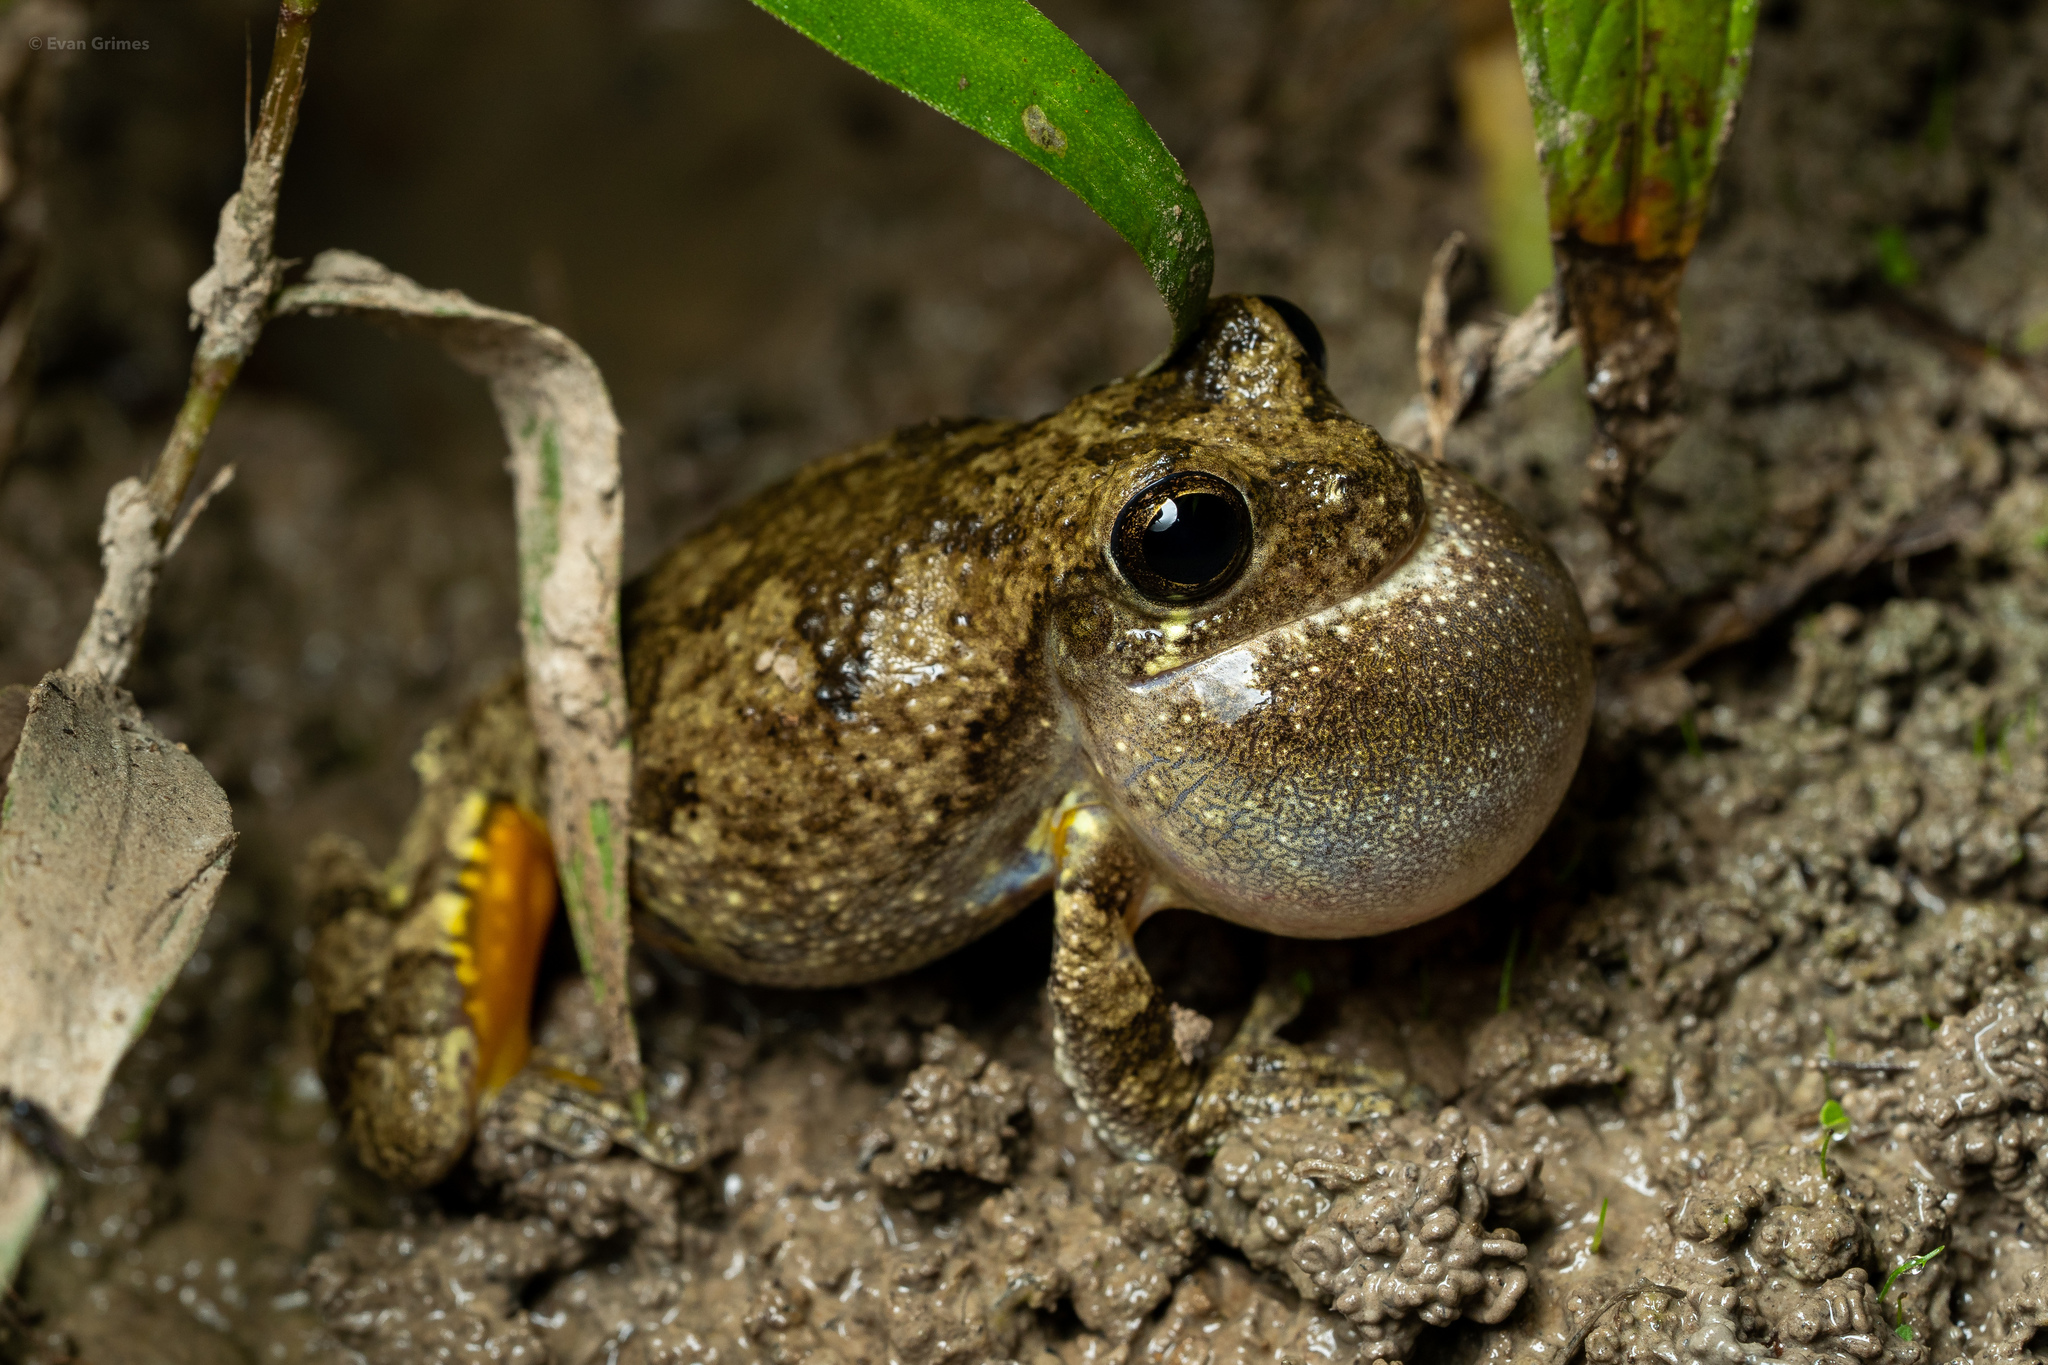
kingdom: Animalia
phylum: Chordata
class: Amphibia
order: Anura
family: Hylidae
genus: Dryophytes
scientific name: Dryophytes chrysoscelis
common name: Cope's gray treefrog
